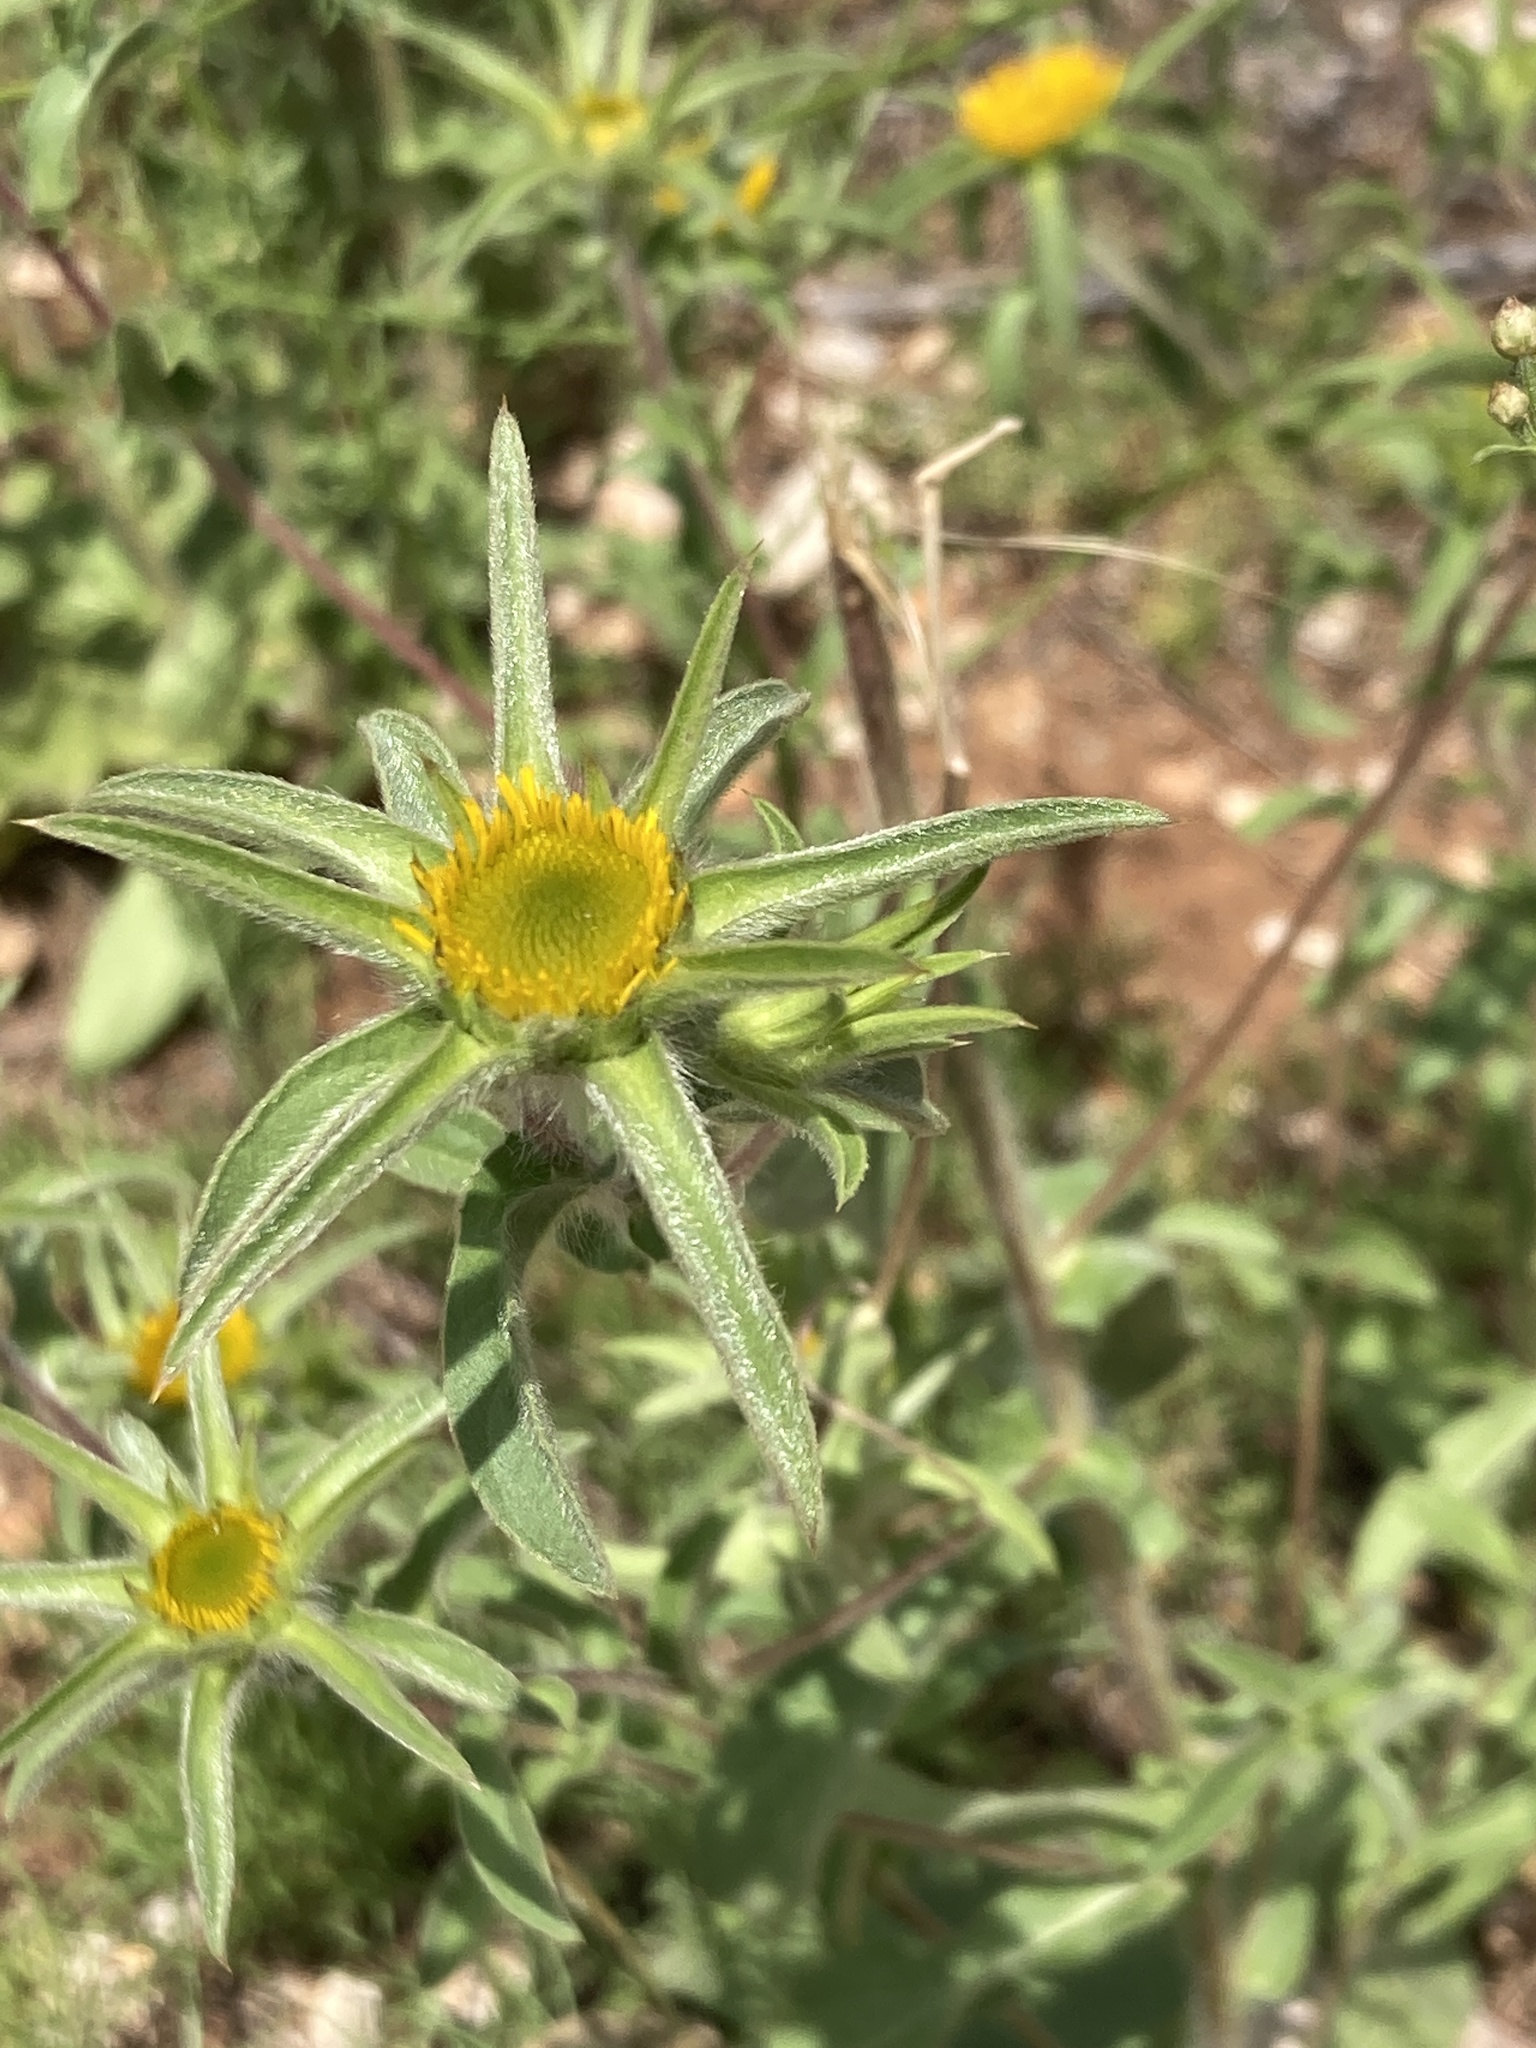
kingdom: Plantae
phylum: Tracheophyta
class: Magnoliopsida
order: Asterales
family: Asteraceae
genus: Pallenis
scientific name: Pallenis spinosa
